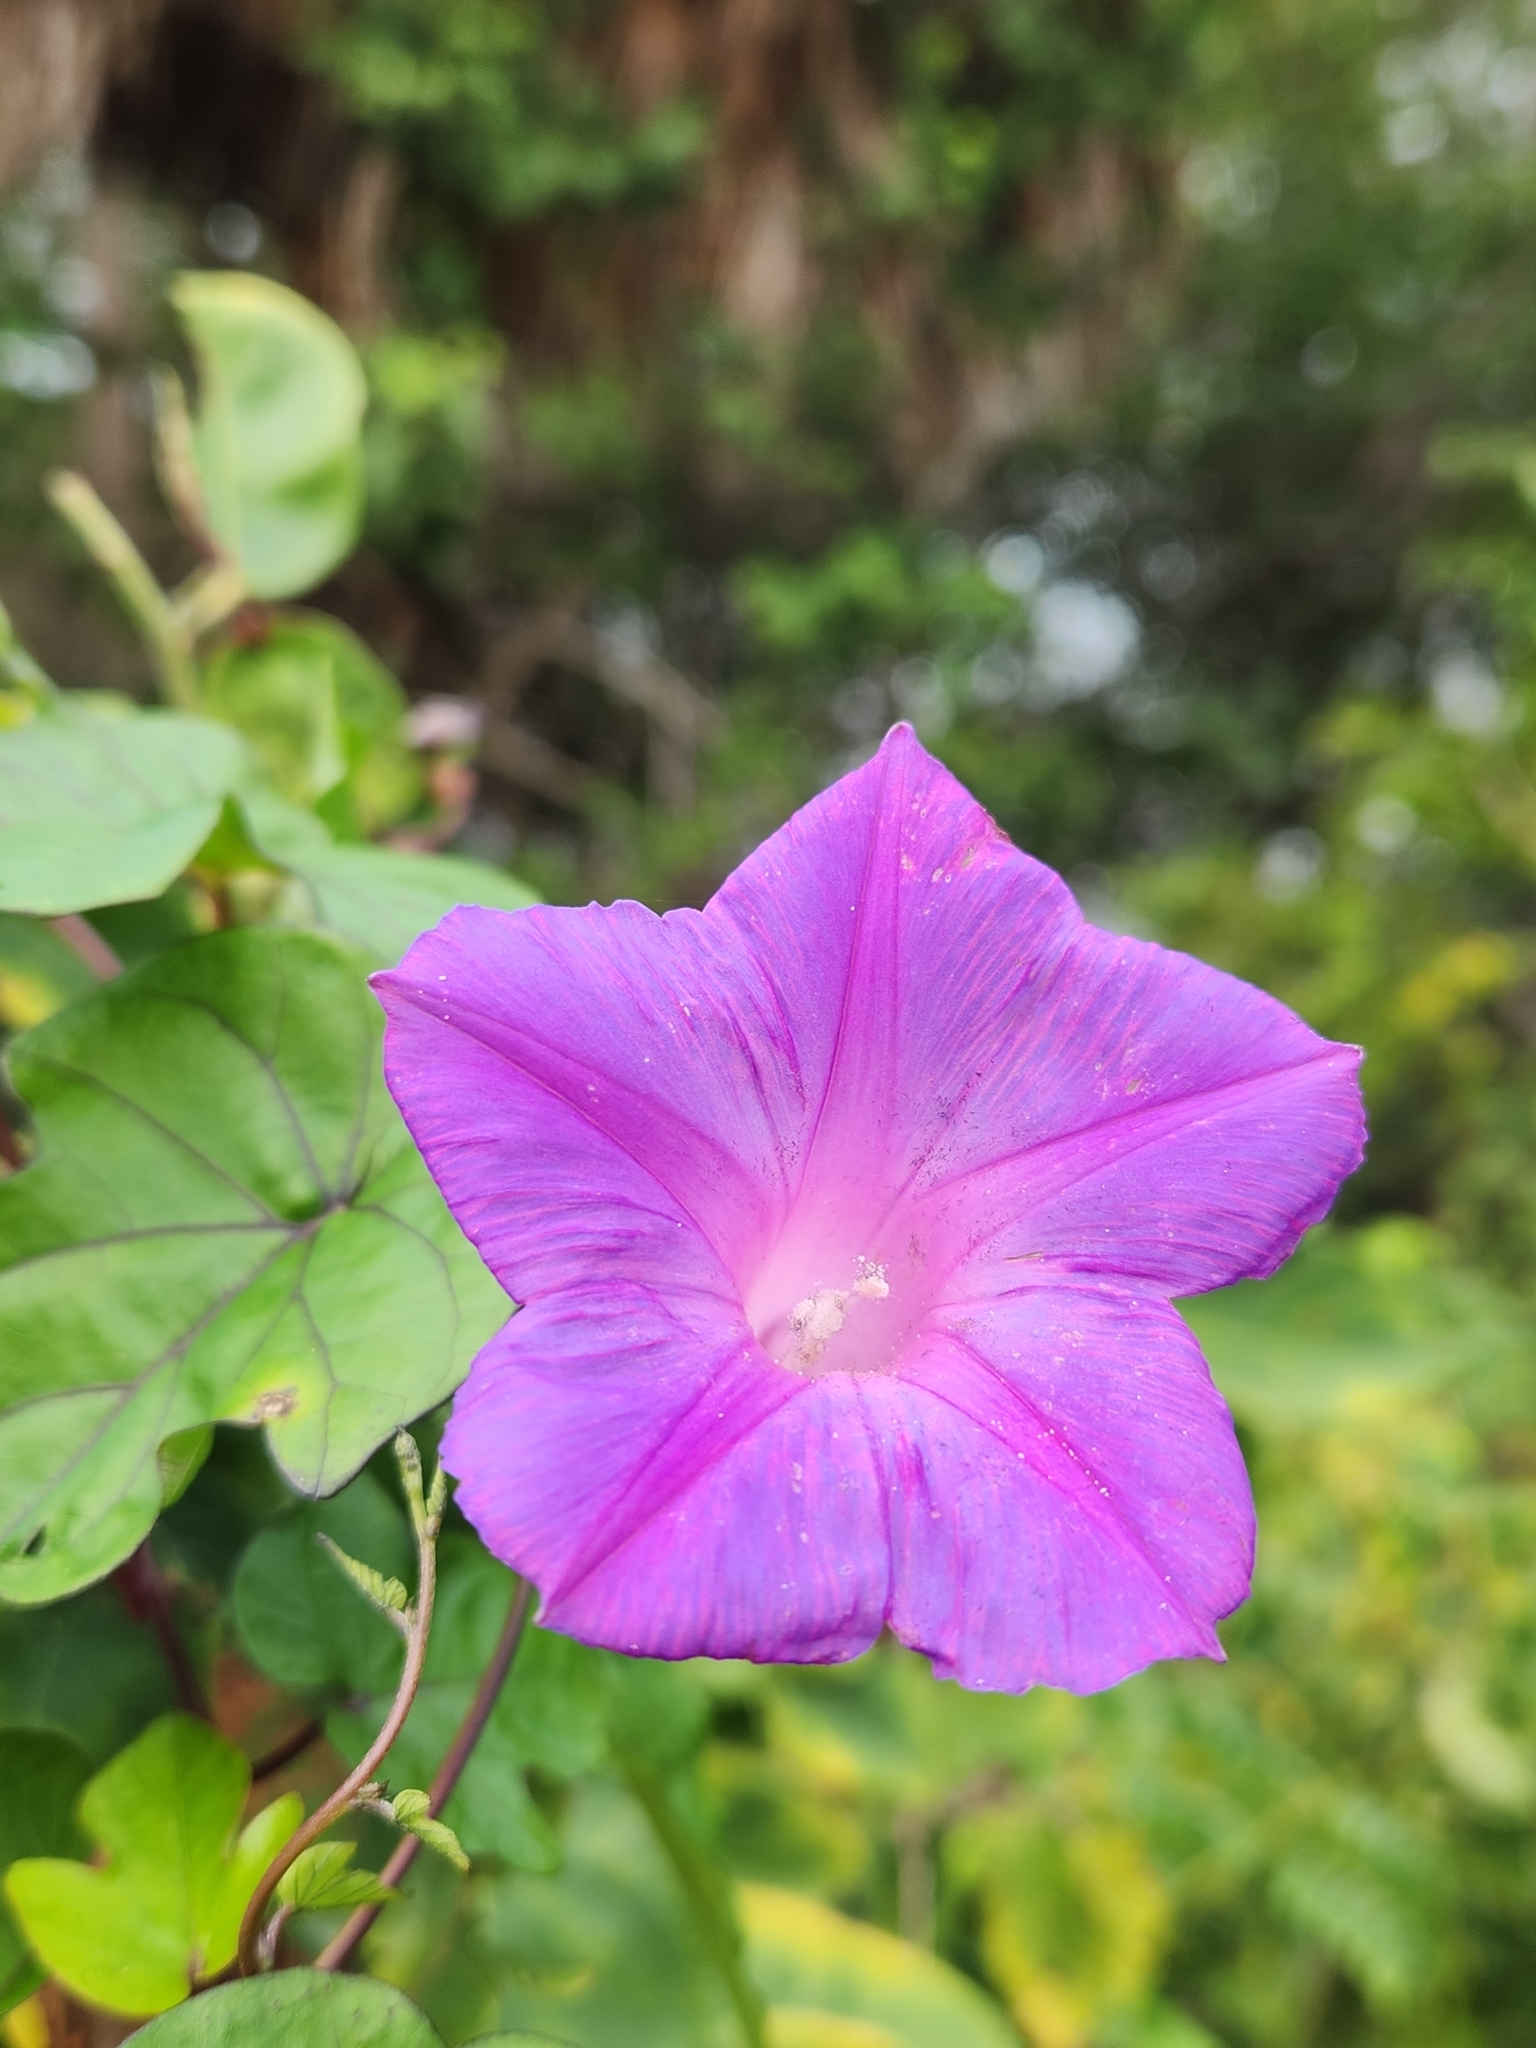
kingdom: Plantae
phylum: Tracheophyta
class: Magnoliopsida
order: Solanales
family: Convolvulaceae
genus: Ipomoea
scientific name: Ipomoea indica
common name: Blue dawnflower
